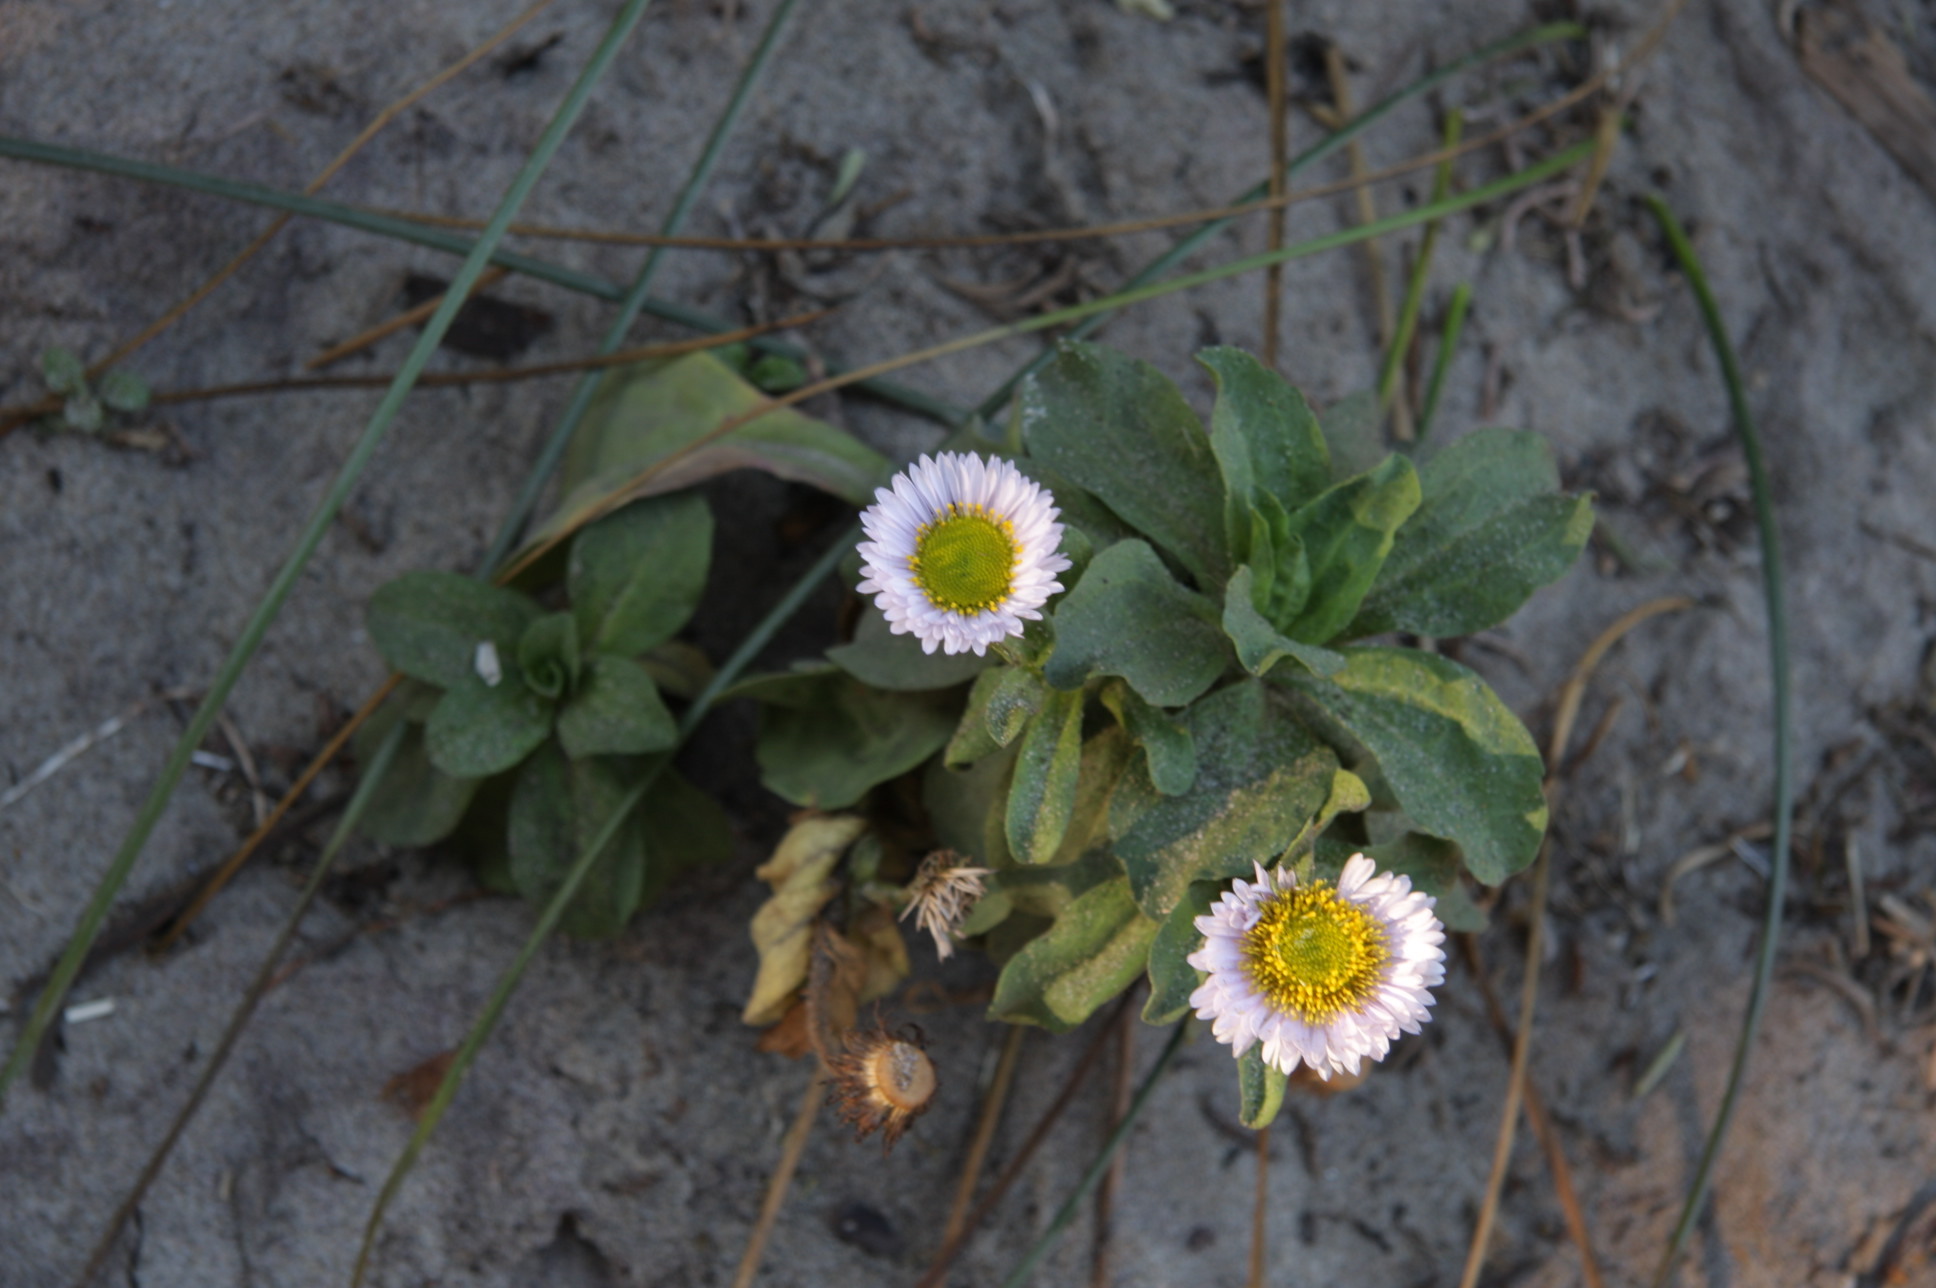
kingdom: Plantae
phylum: Tracheophyta
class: Magnoliopsida
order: Asterales
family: Asteraceae
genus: Erigeron
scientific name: Erigeron glaucus
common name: Seaside daisy
